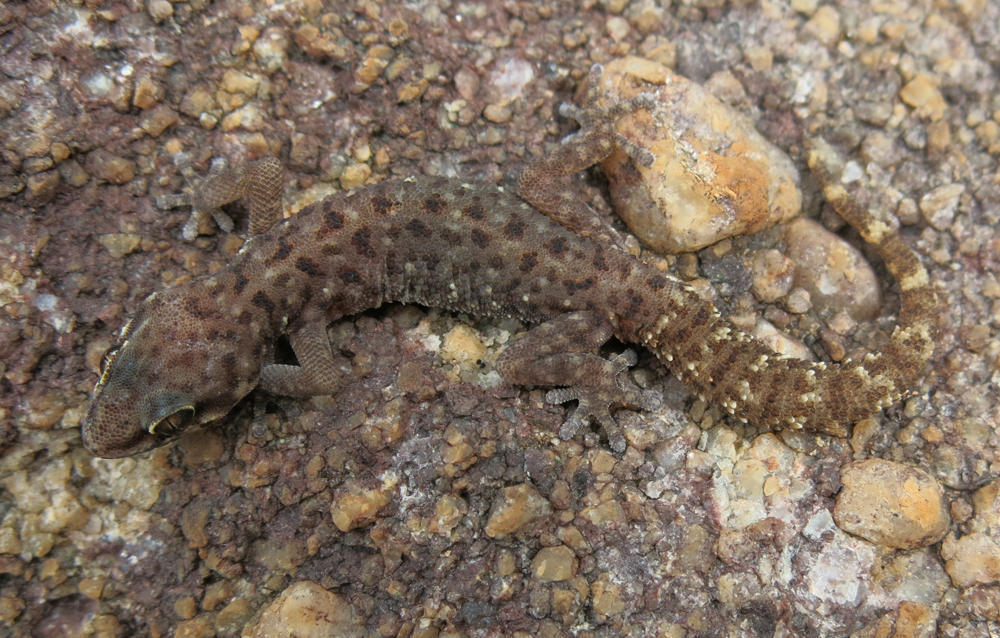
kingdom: Animalia
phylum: Chordata
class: Squamata
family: Gekkonidae
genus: Pachydactylus
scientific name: Pachydactylus affinis
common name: Transvaal gecko
